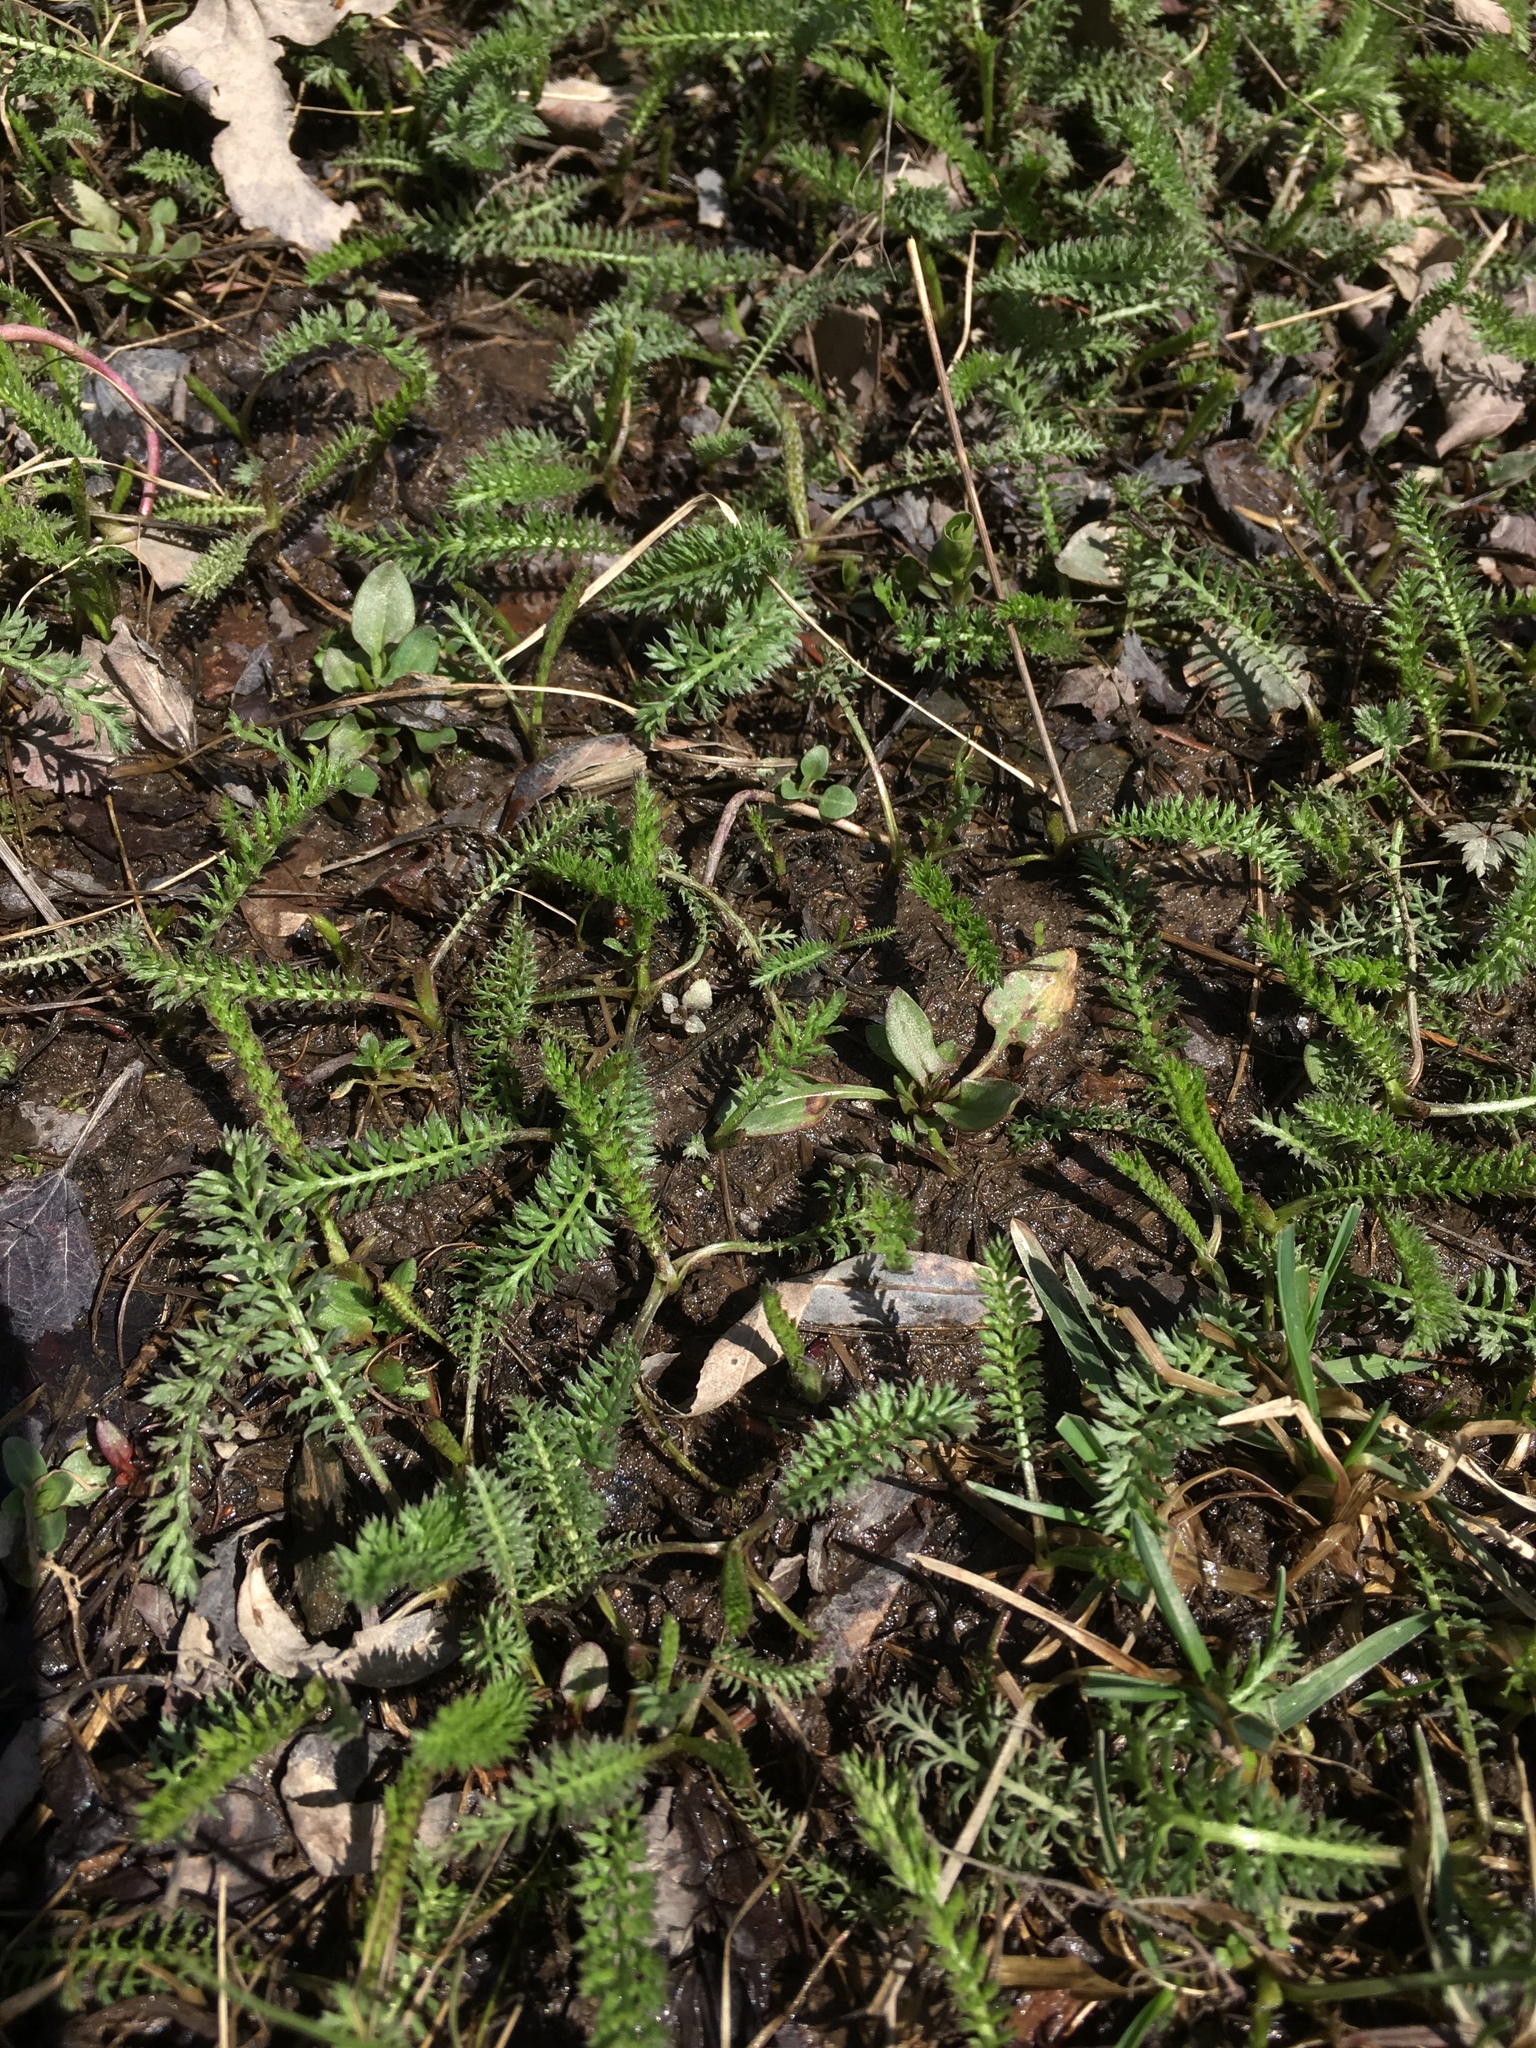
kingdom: Plantae
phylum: Tracheophyta
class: Magnoliopsida
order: Asterales
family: Asteraceae
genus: Achillea
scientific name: Achillea millefolium
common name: Yarrow
